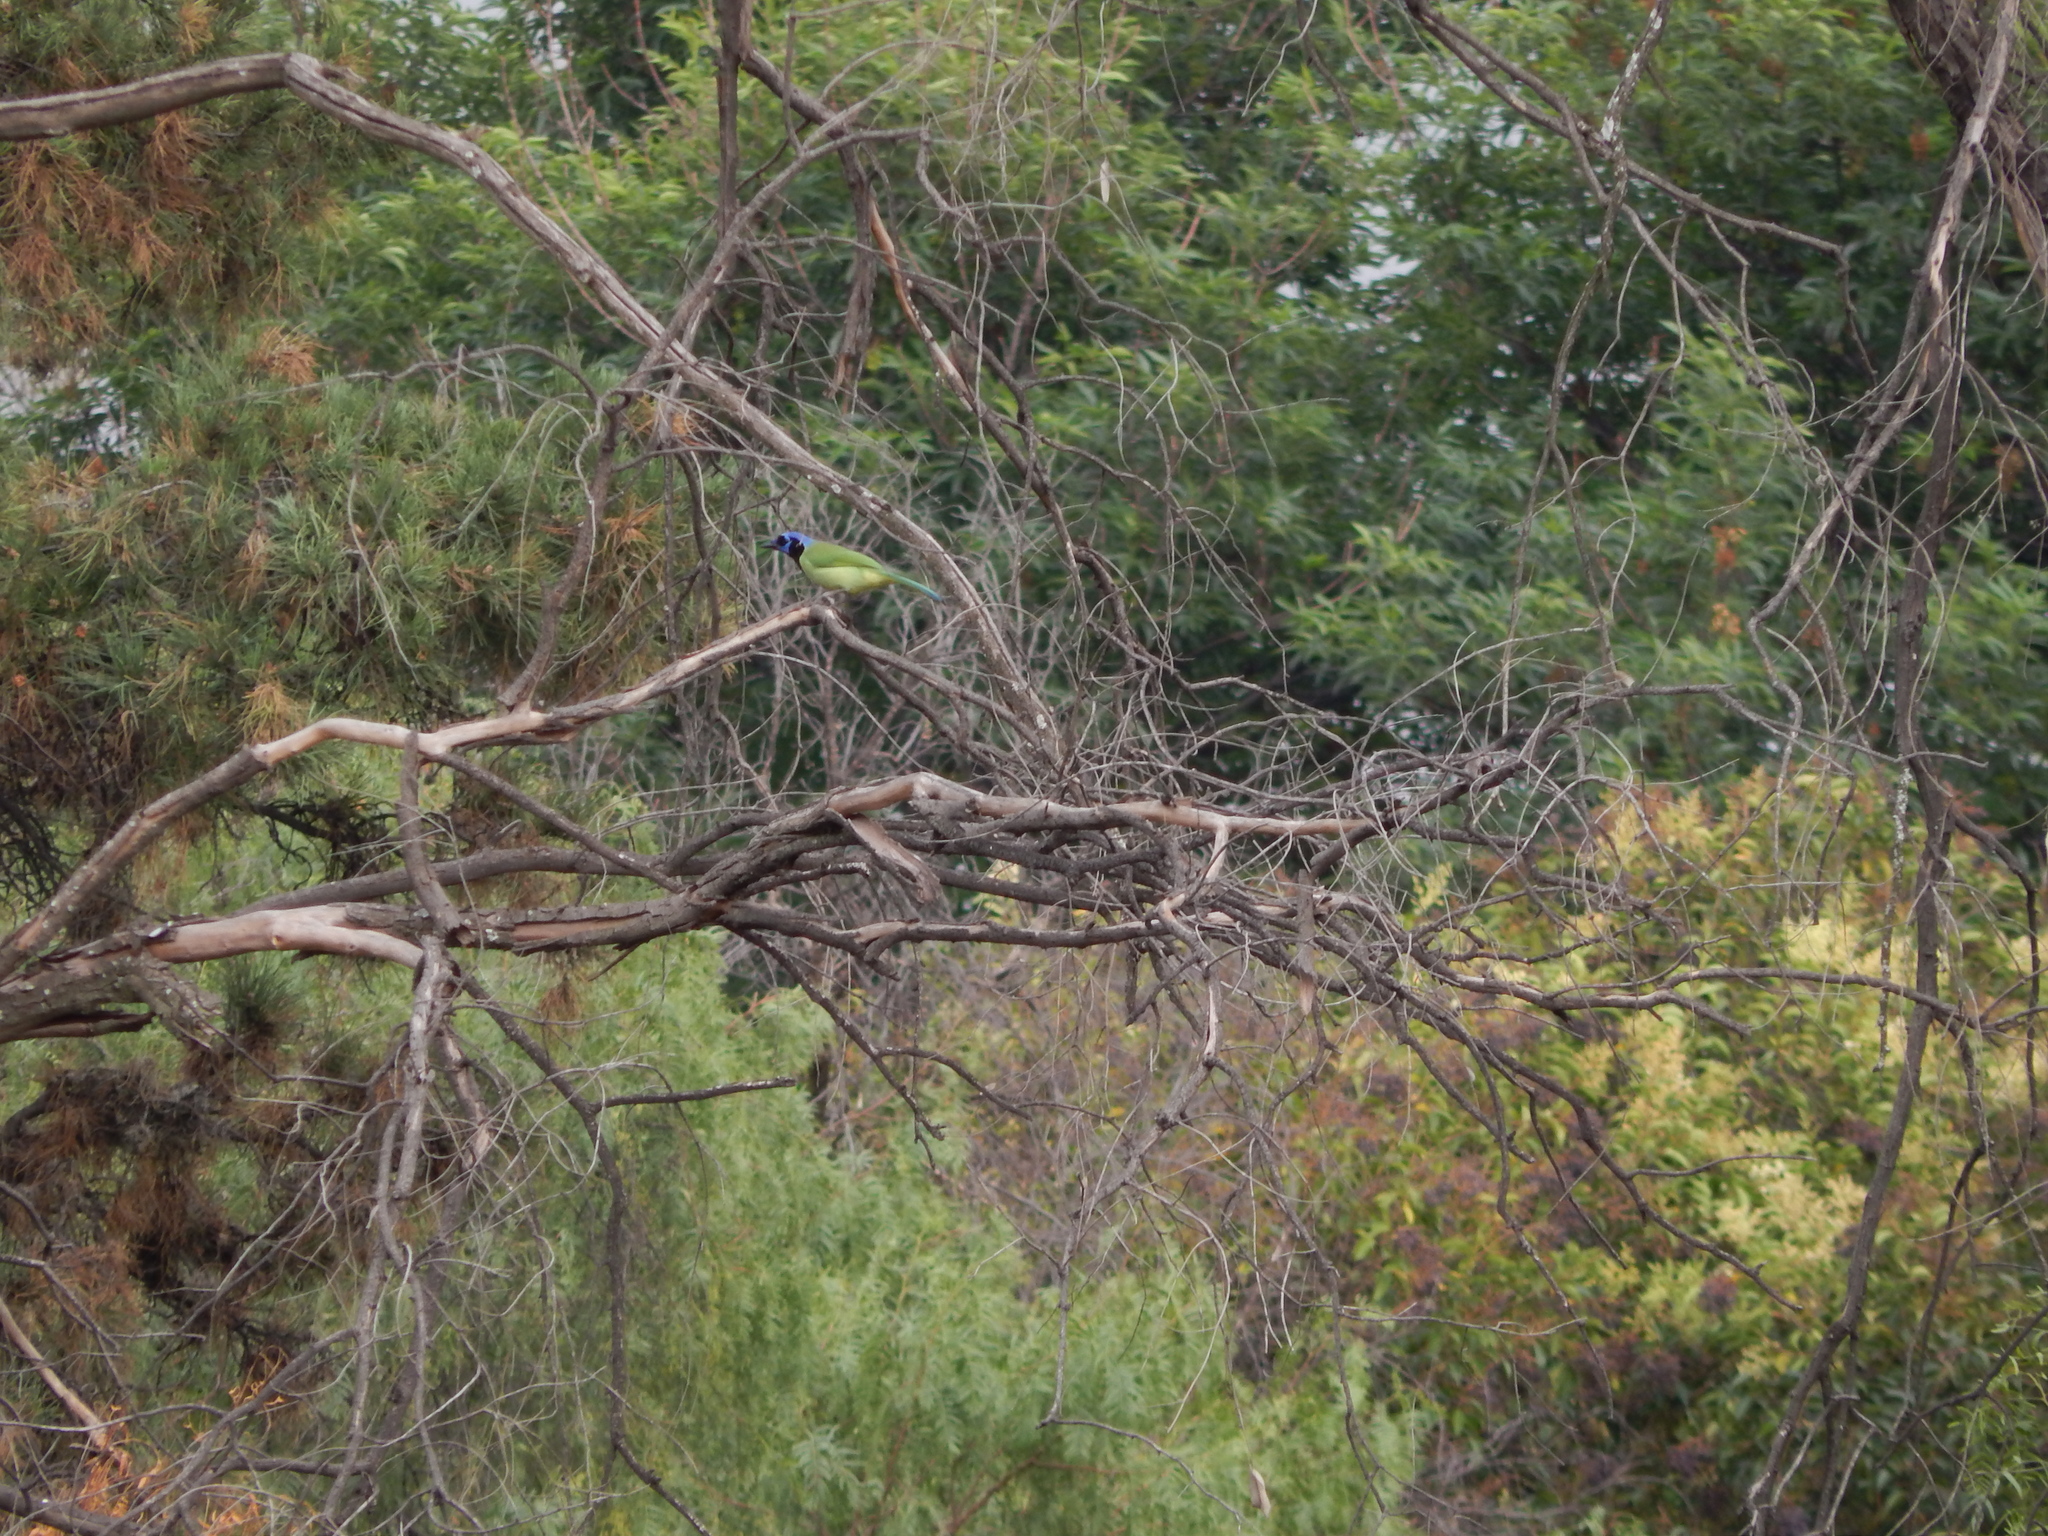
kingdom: Animalia
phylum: Chordata
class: Aves
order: Passeriformes
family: Corvidae
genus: Cyanocorax
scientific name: Cyanocorax yncas
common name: Green jay
